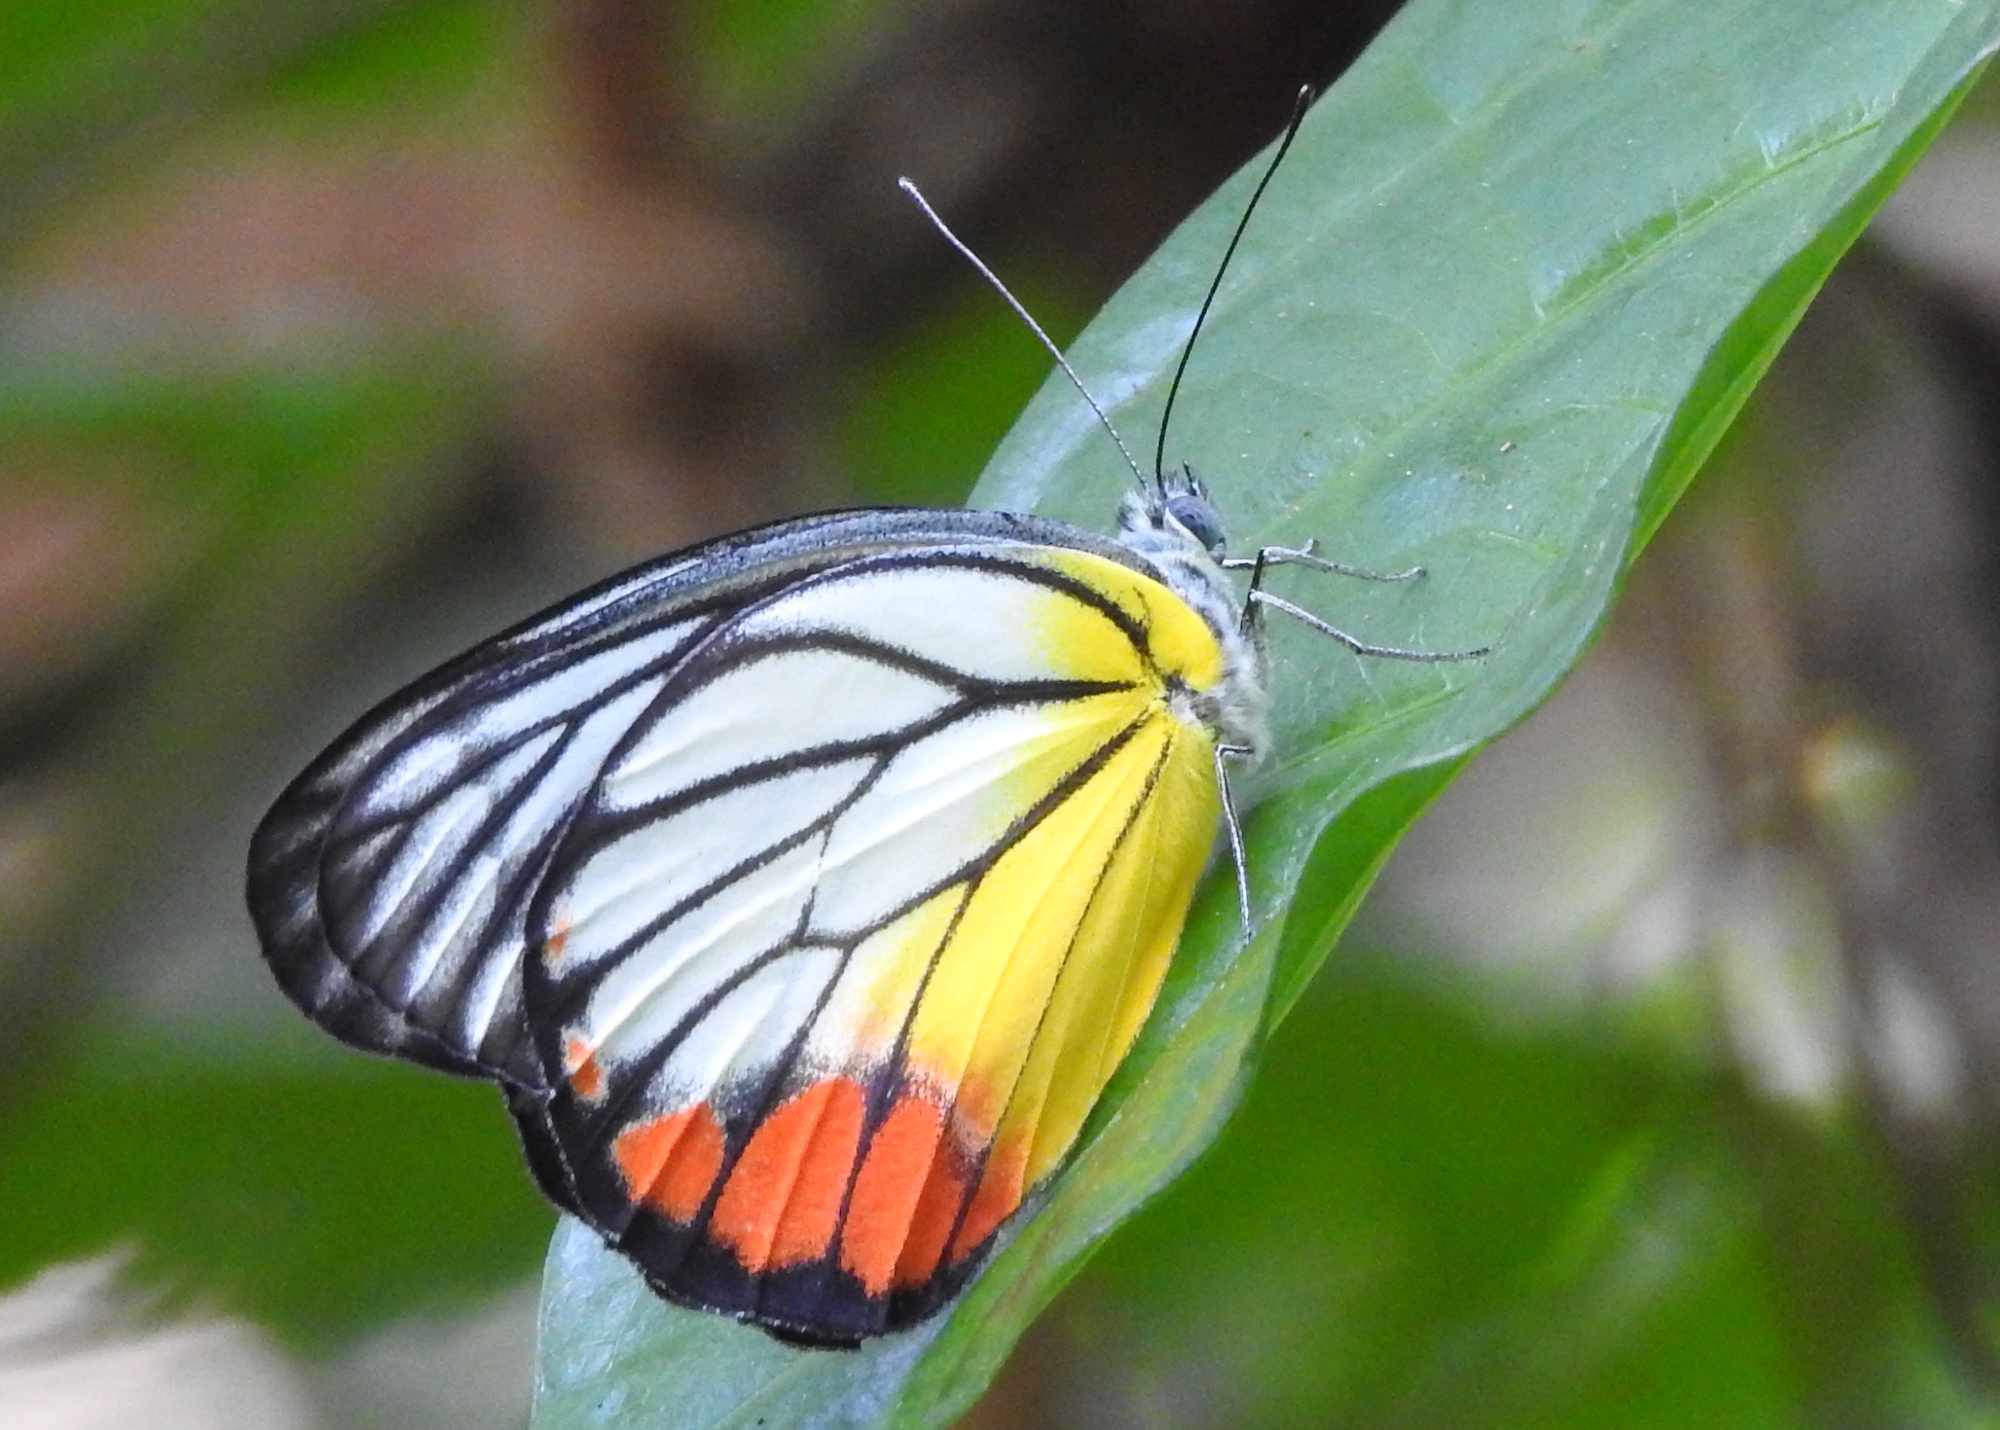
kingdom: Animalia
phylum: Arthropoda
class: Insecta
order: Lepidoptera
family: Pieridae
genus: Delias
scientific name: Delias hyparete
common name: Painted jezebel
